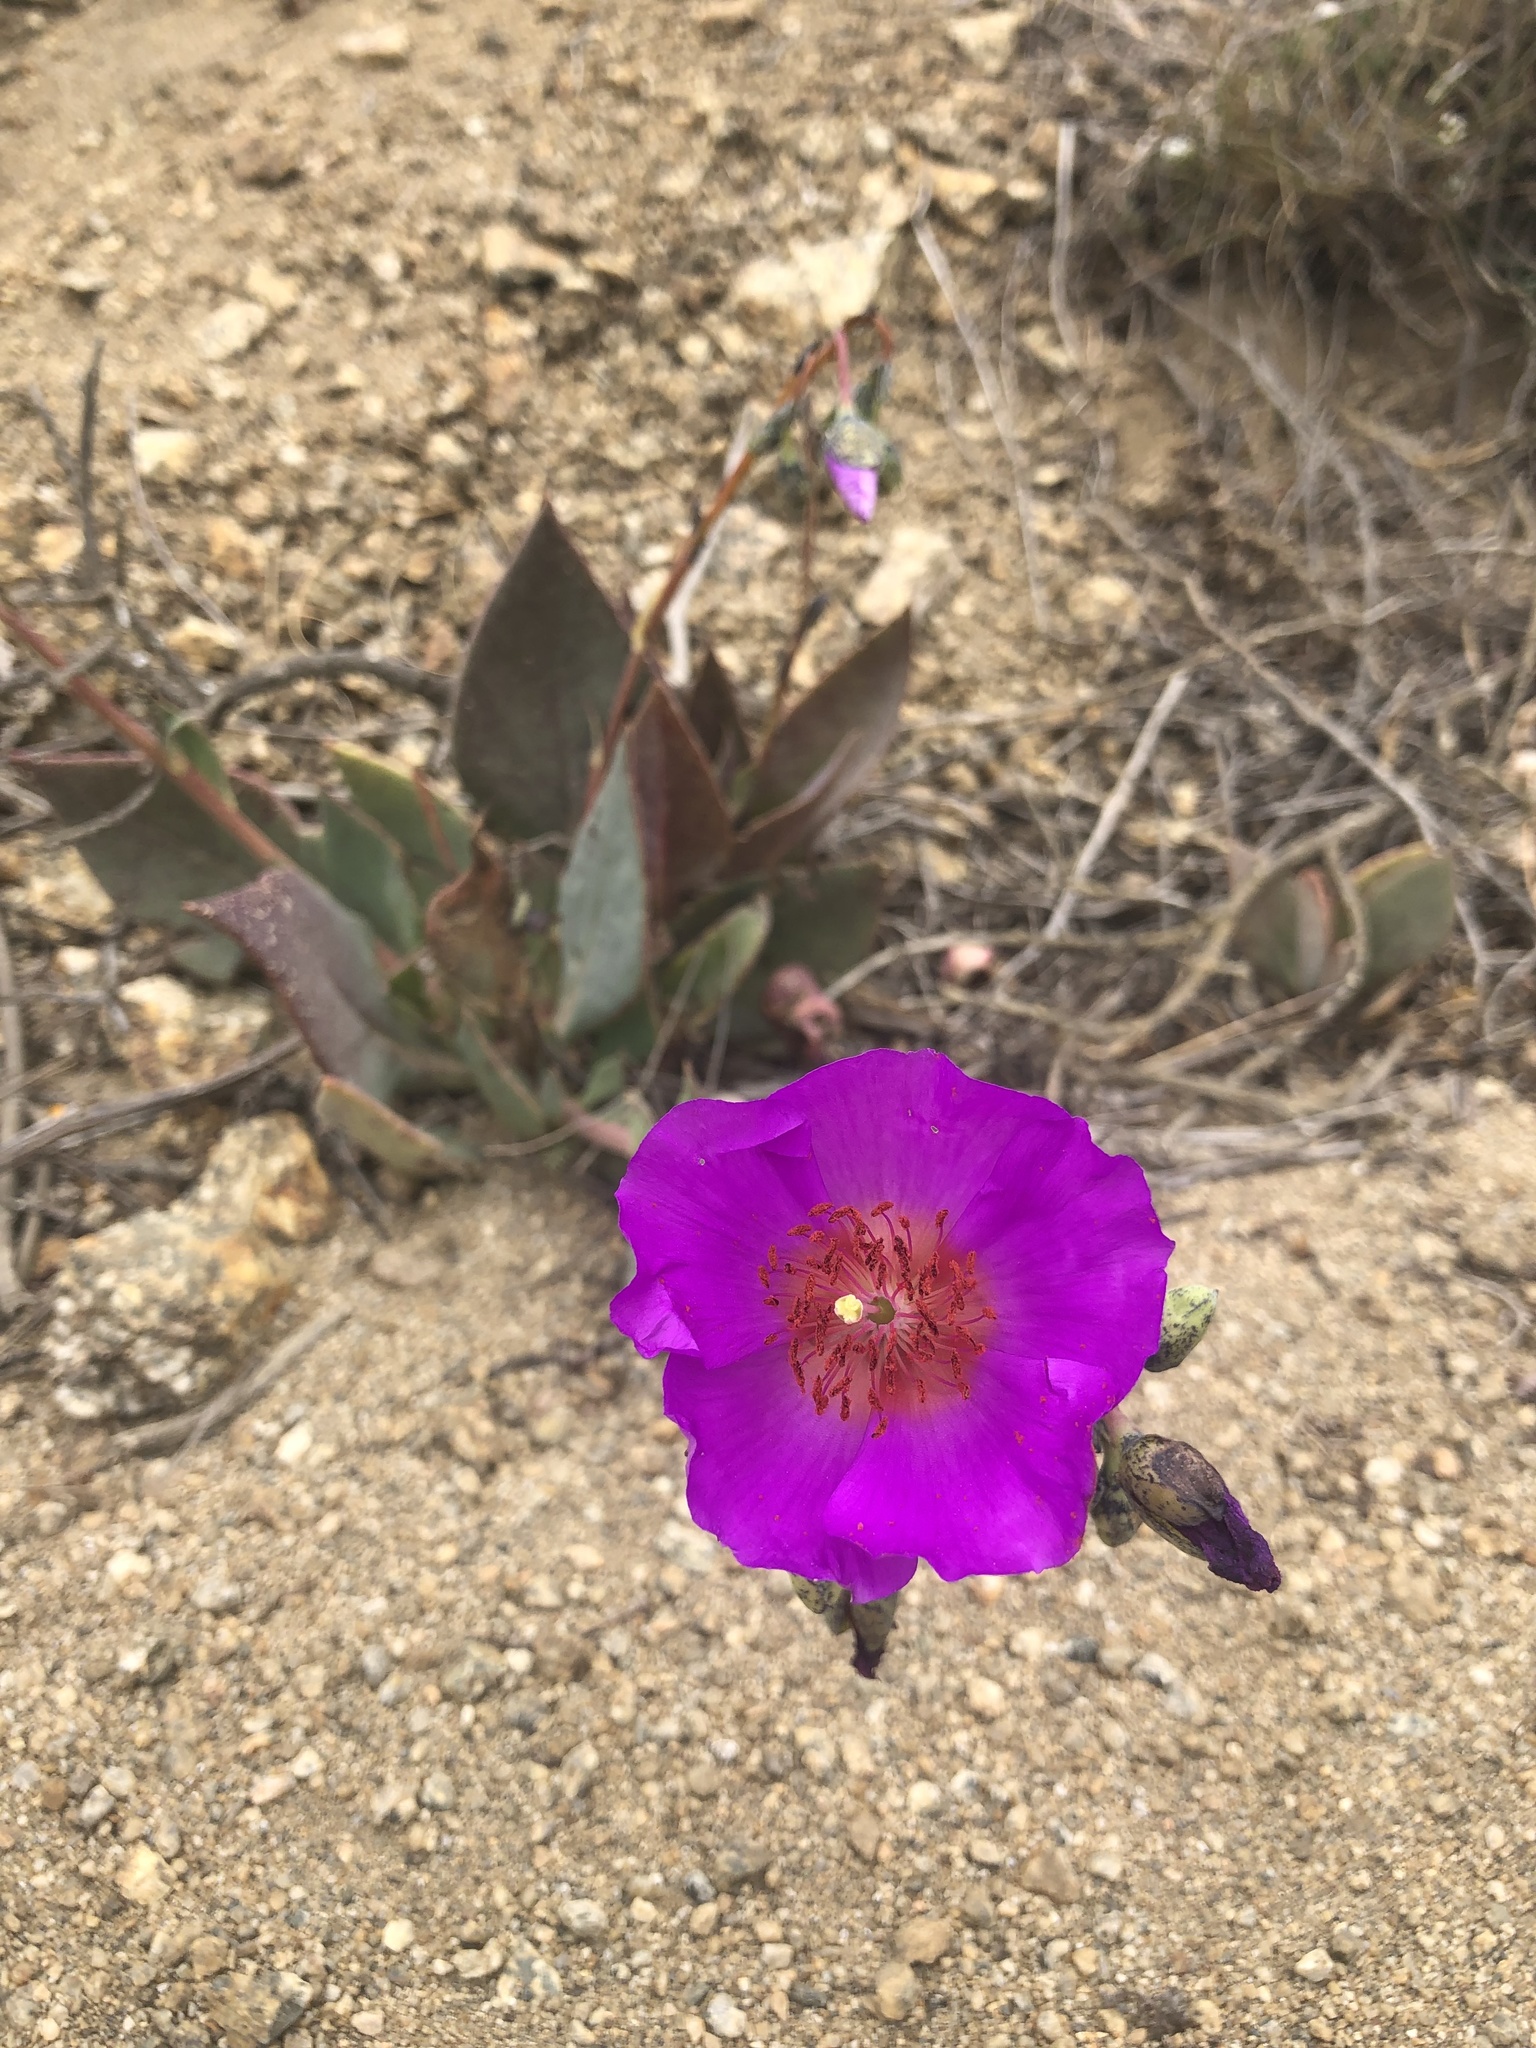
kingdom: Plantae
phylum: Tracheophyta
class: Magnoliopsida
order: Caryophyllales
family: Montiaceae
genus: Cistanthe
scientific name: Cistanthe grandiflora
